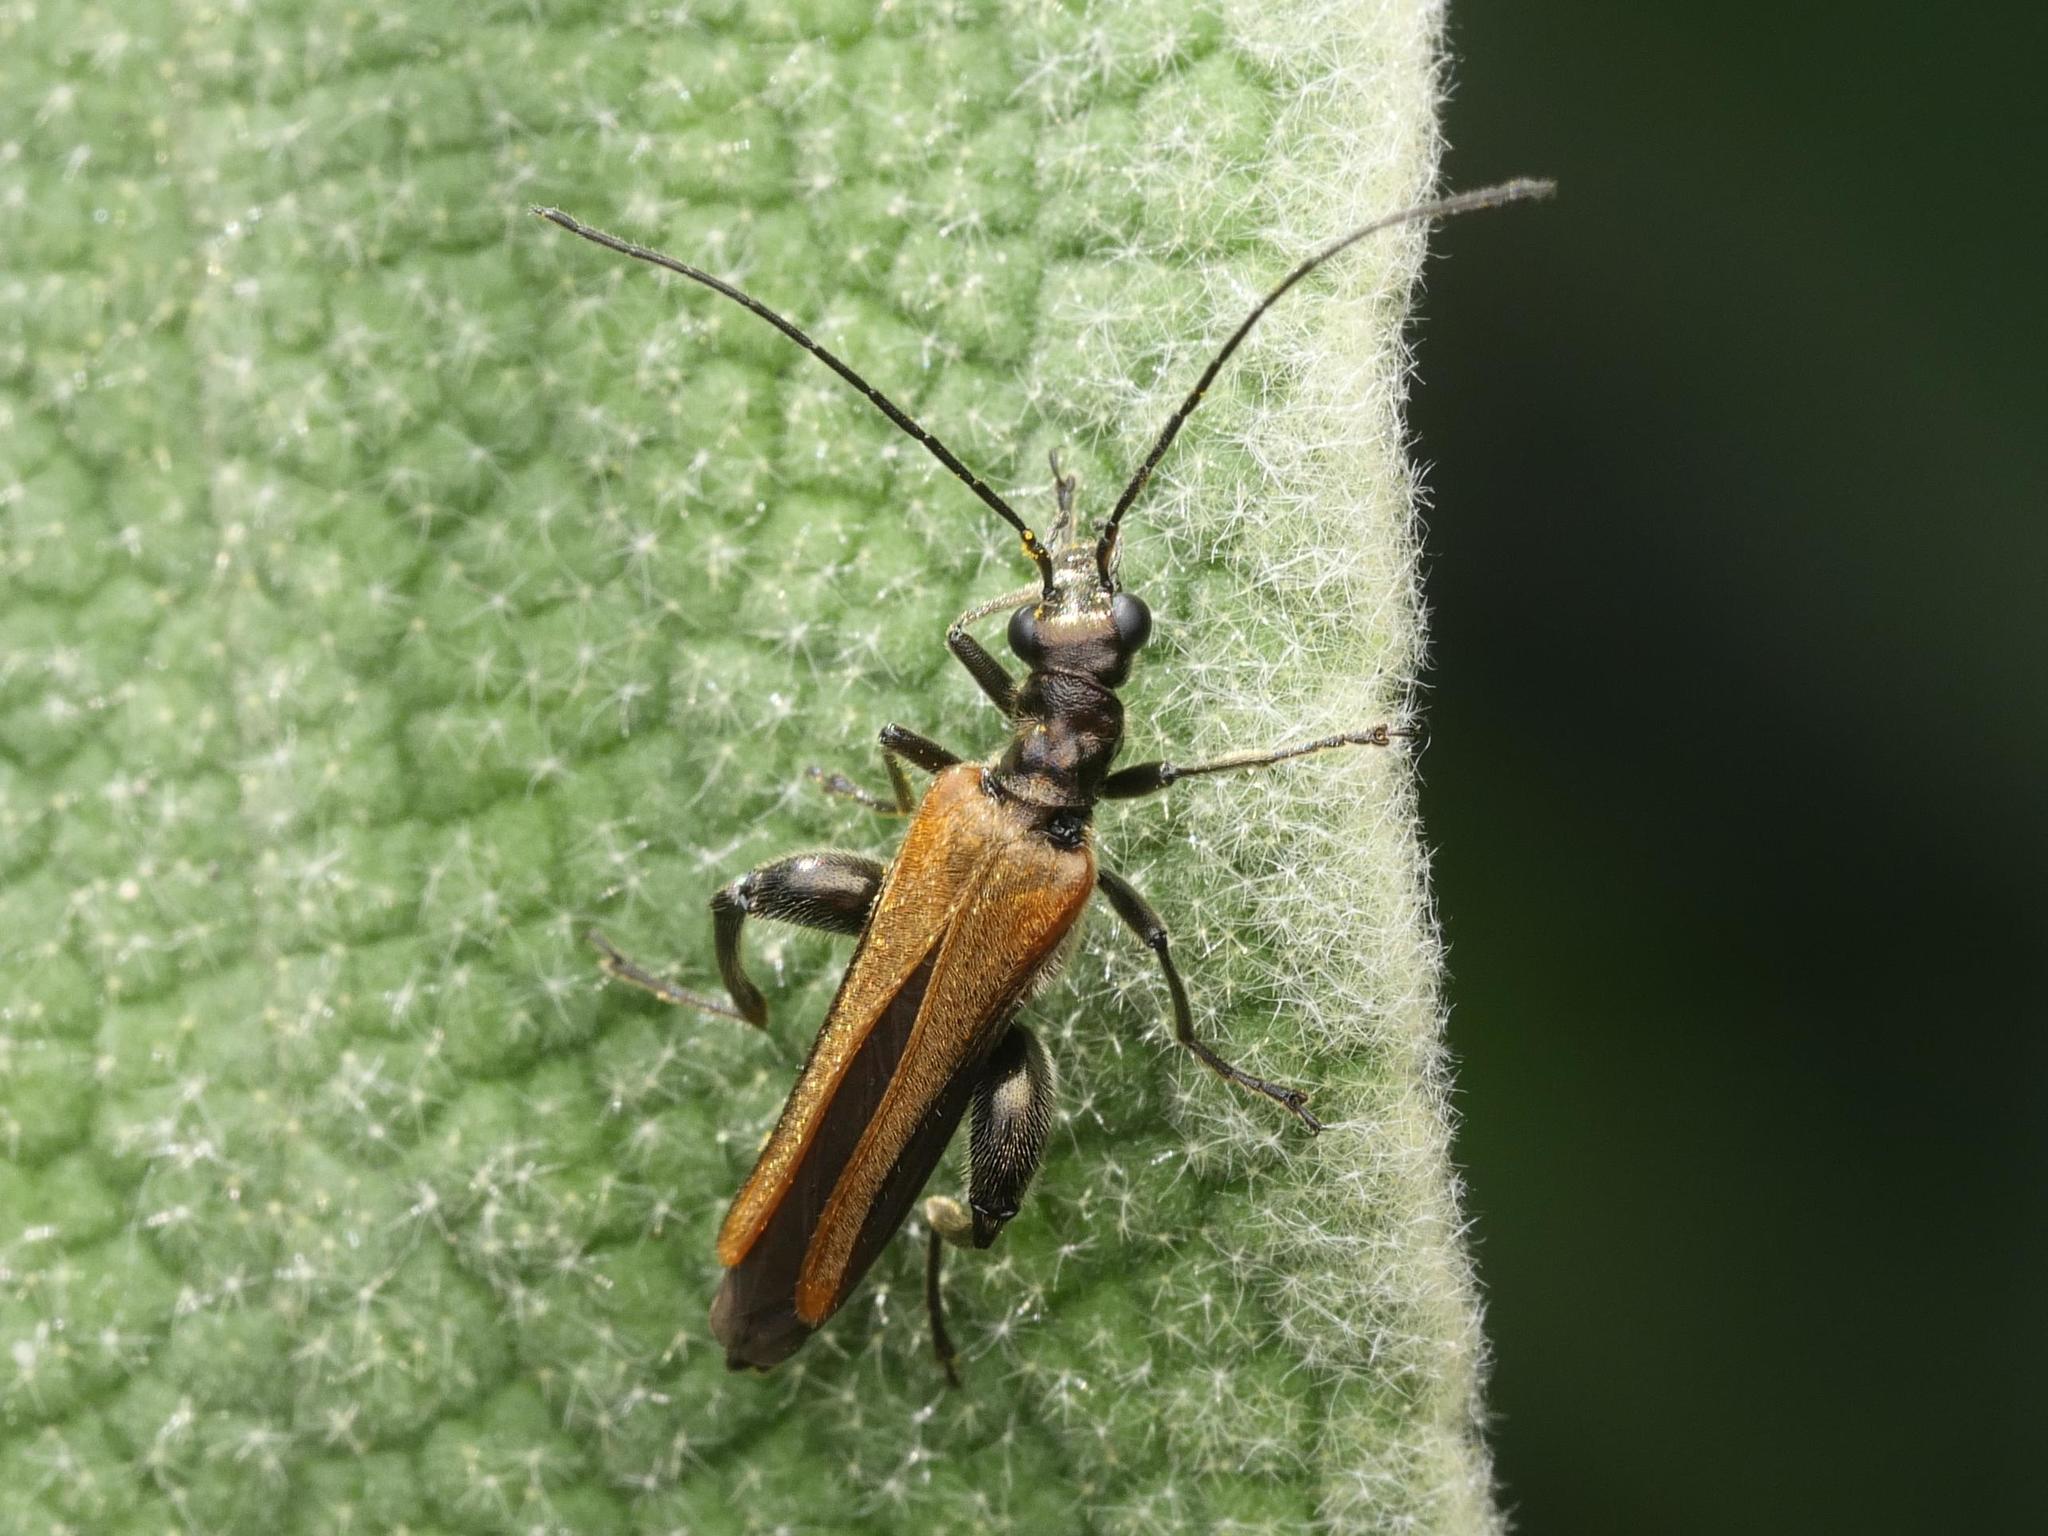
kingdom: Animalia
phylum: Arthropoda
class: Insecta
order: Coleoptera
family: Oedemeridae
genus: Oedemera
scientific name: Oedemera femorata
